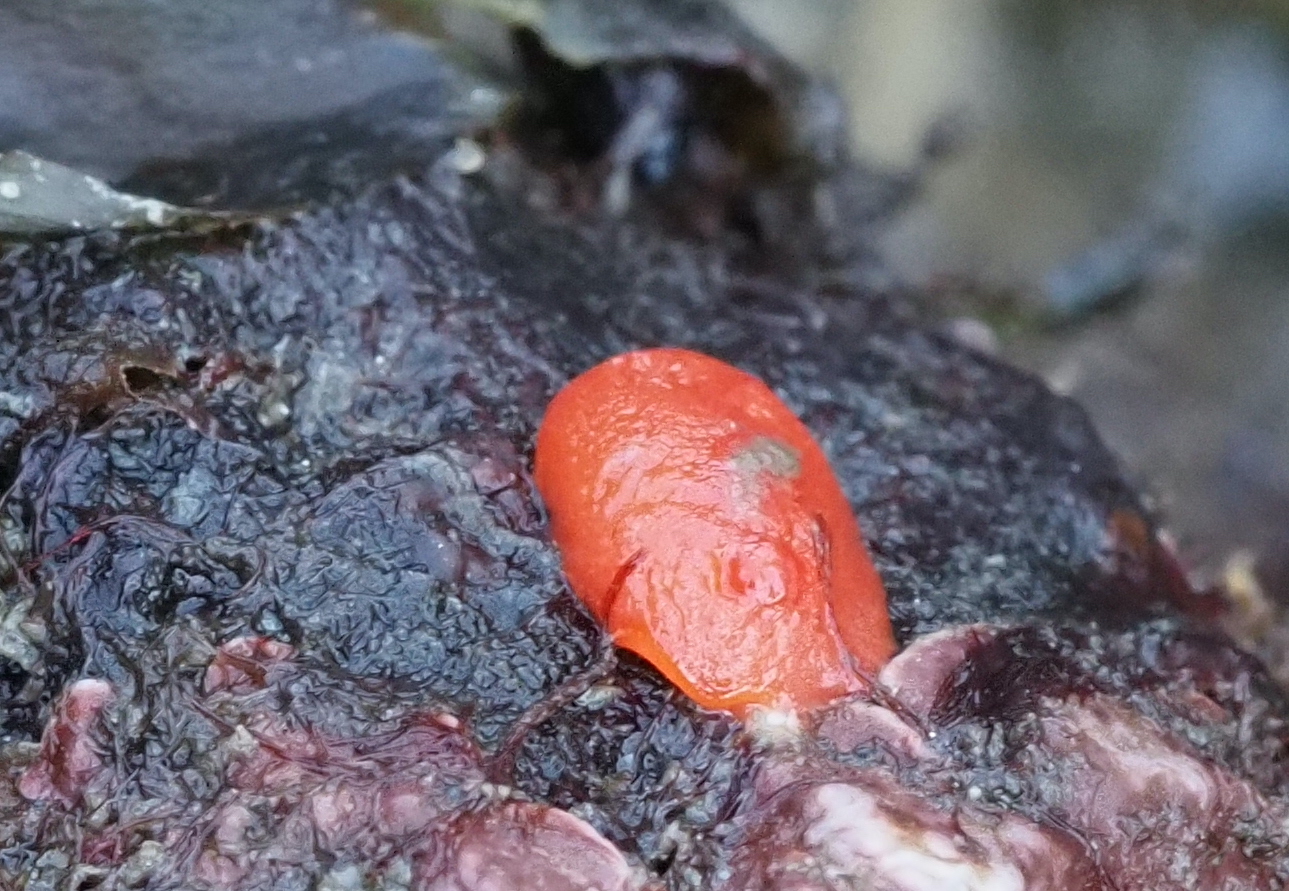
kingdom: Animalia
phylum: Mollusca
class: Gastropoda
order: Nudibranchia
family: Discodorididae
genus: Rostanga
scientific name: Rostanga pulchra
